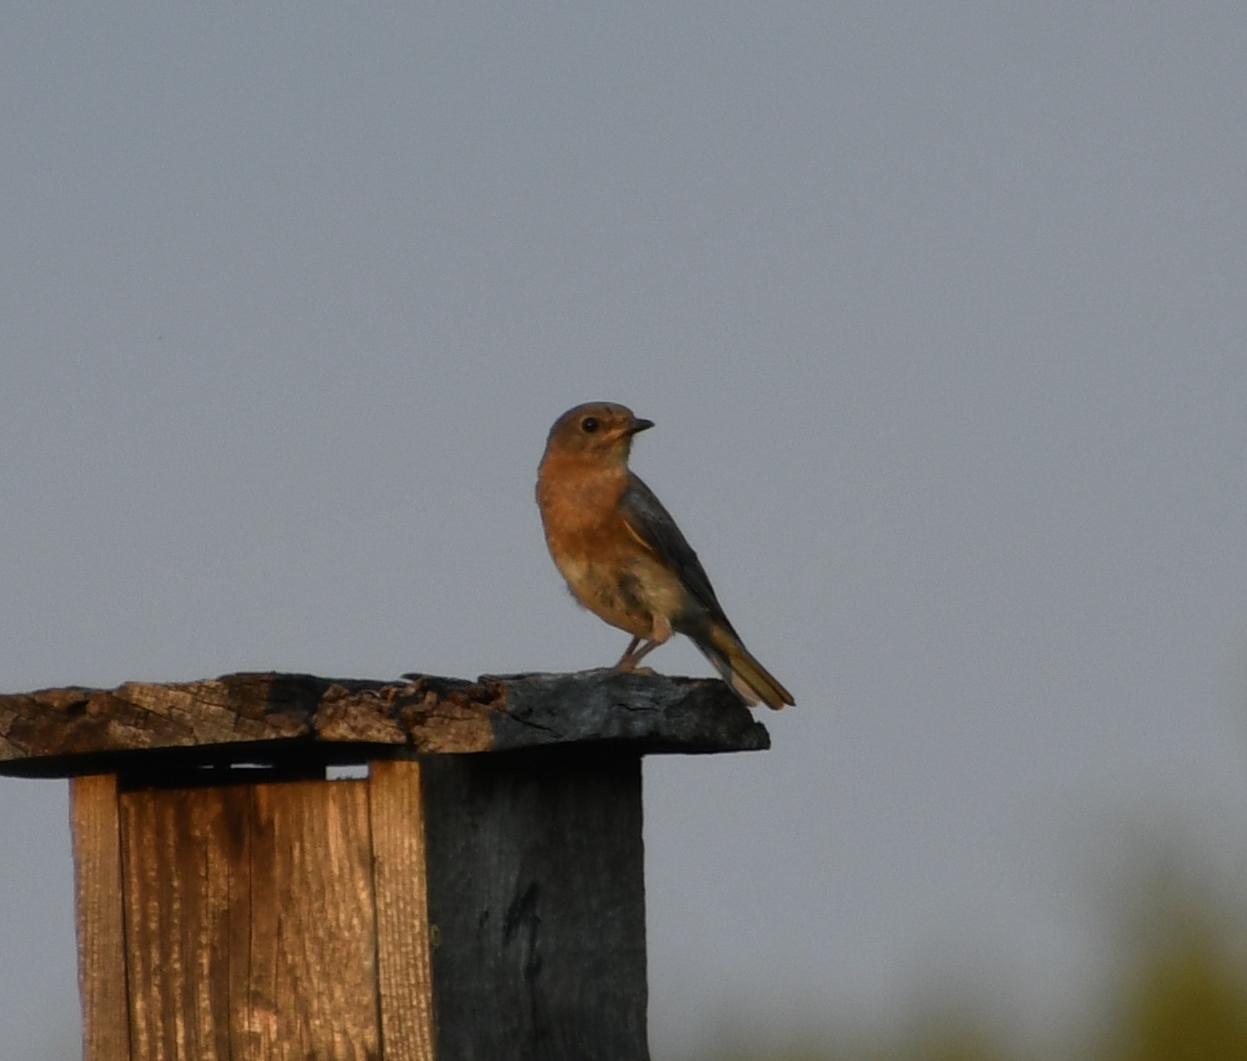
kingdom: Animalia
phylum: Chordata
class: Aves
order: Passeriformes
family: Turdidae
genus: Sialia
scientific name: Sialia sialis
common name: Eastern bluebird
